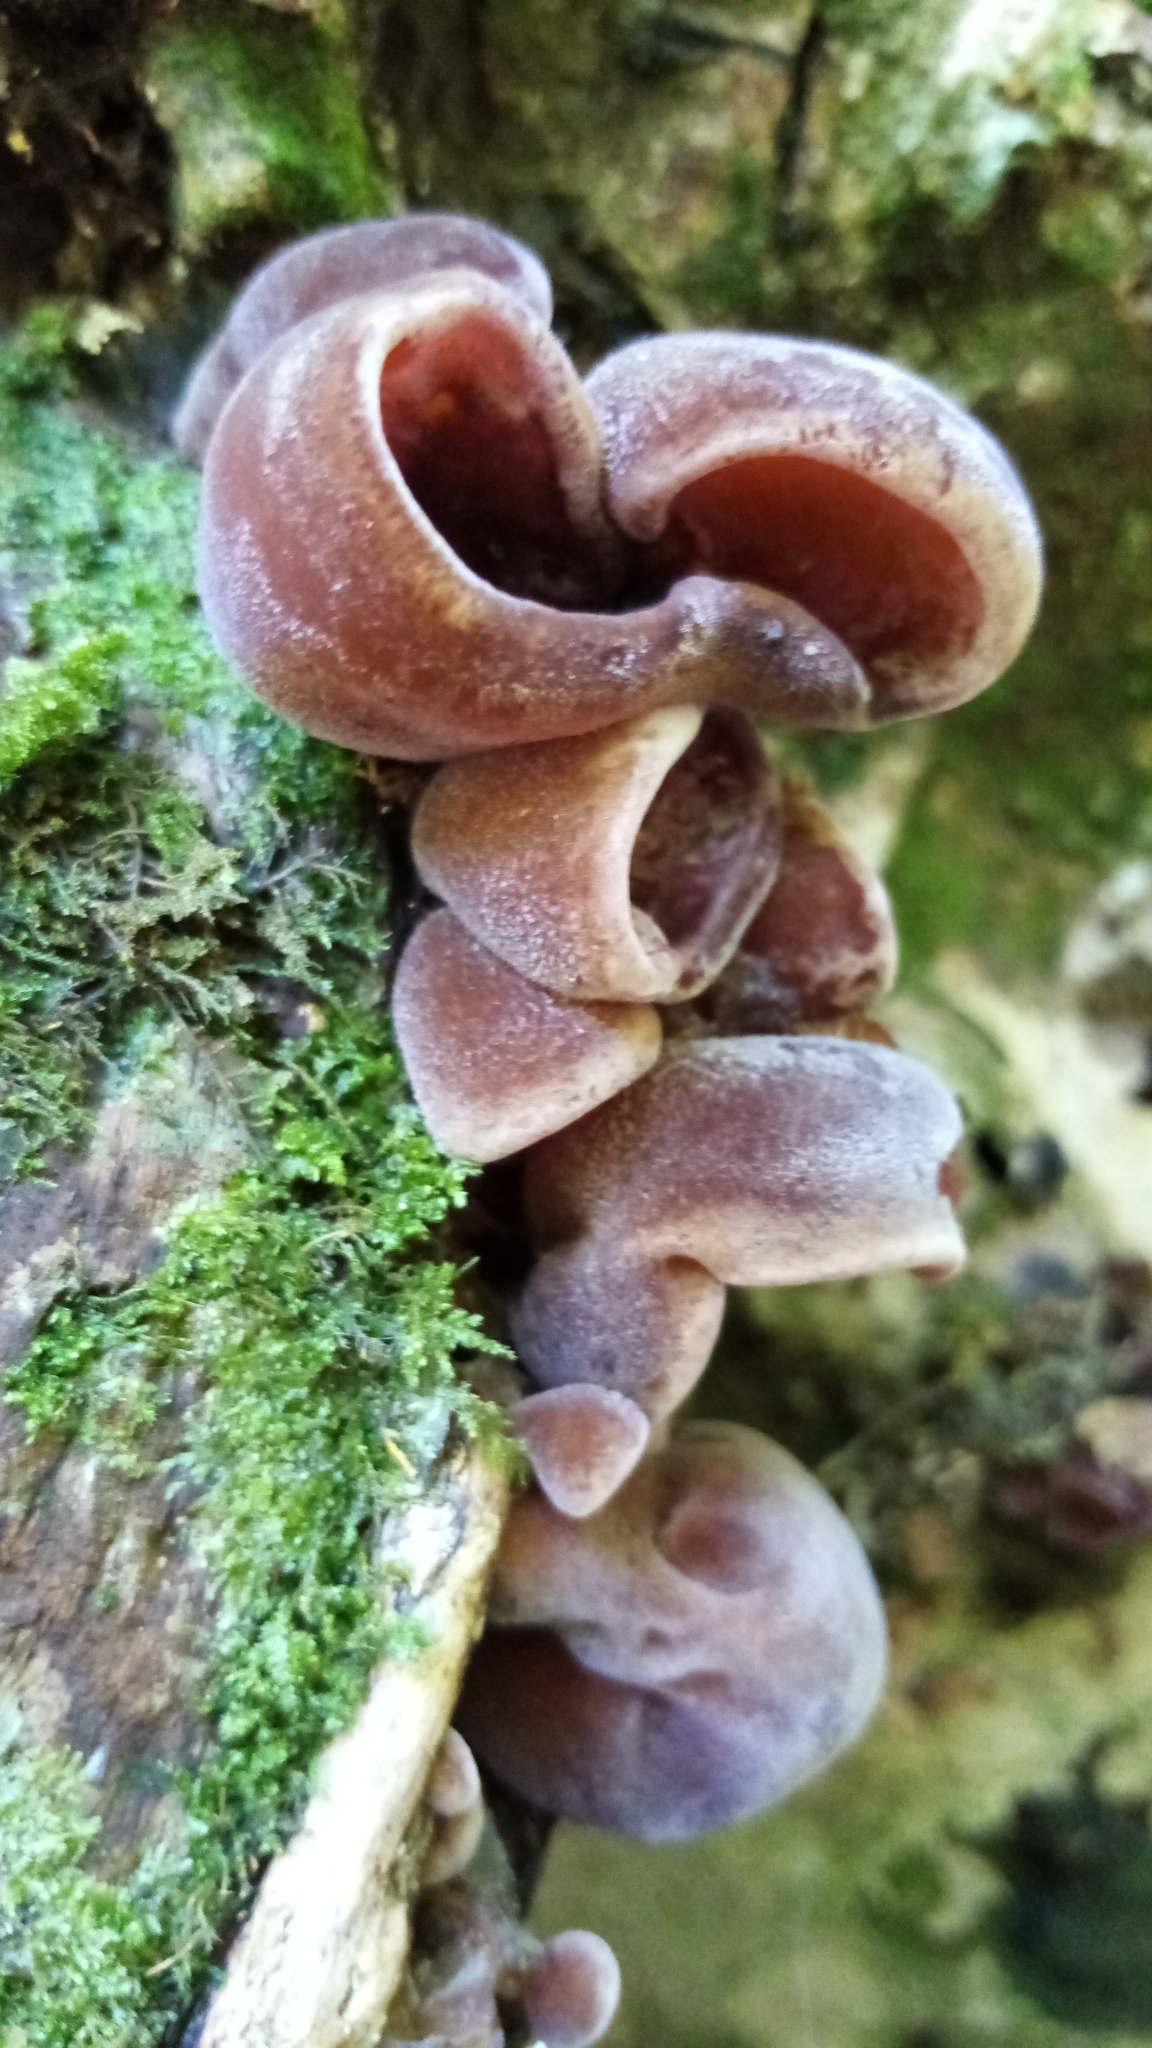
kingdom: Fungi
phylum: Basidiomycota
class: Agaricomycetes
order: Auriculariales
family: Auriculariaceae
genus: Auricularia
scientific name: Auricularia cornea
